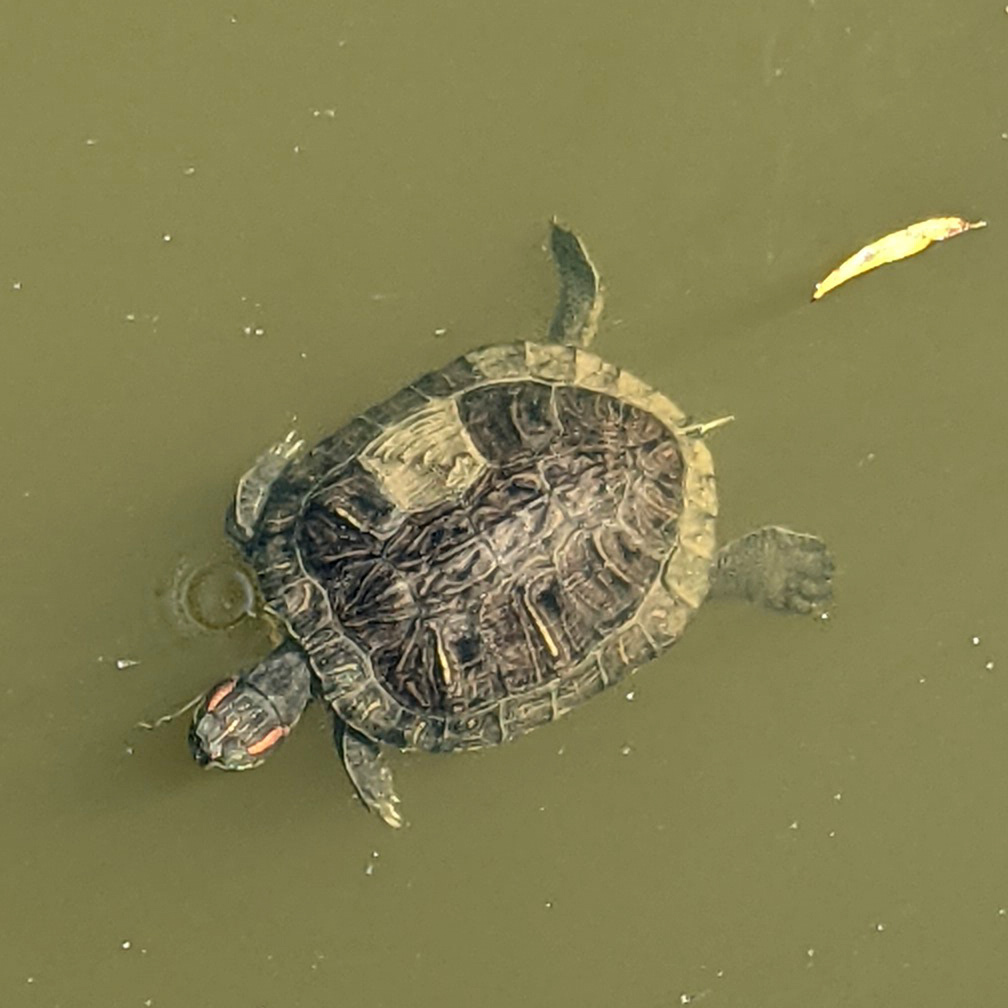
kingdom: Animalia
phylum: Chordata
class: Testudines
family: Emydidae
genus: Trachemys
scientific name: Trachemys scripta
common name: Slider
